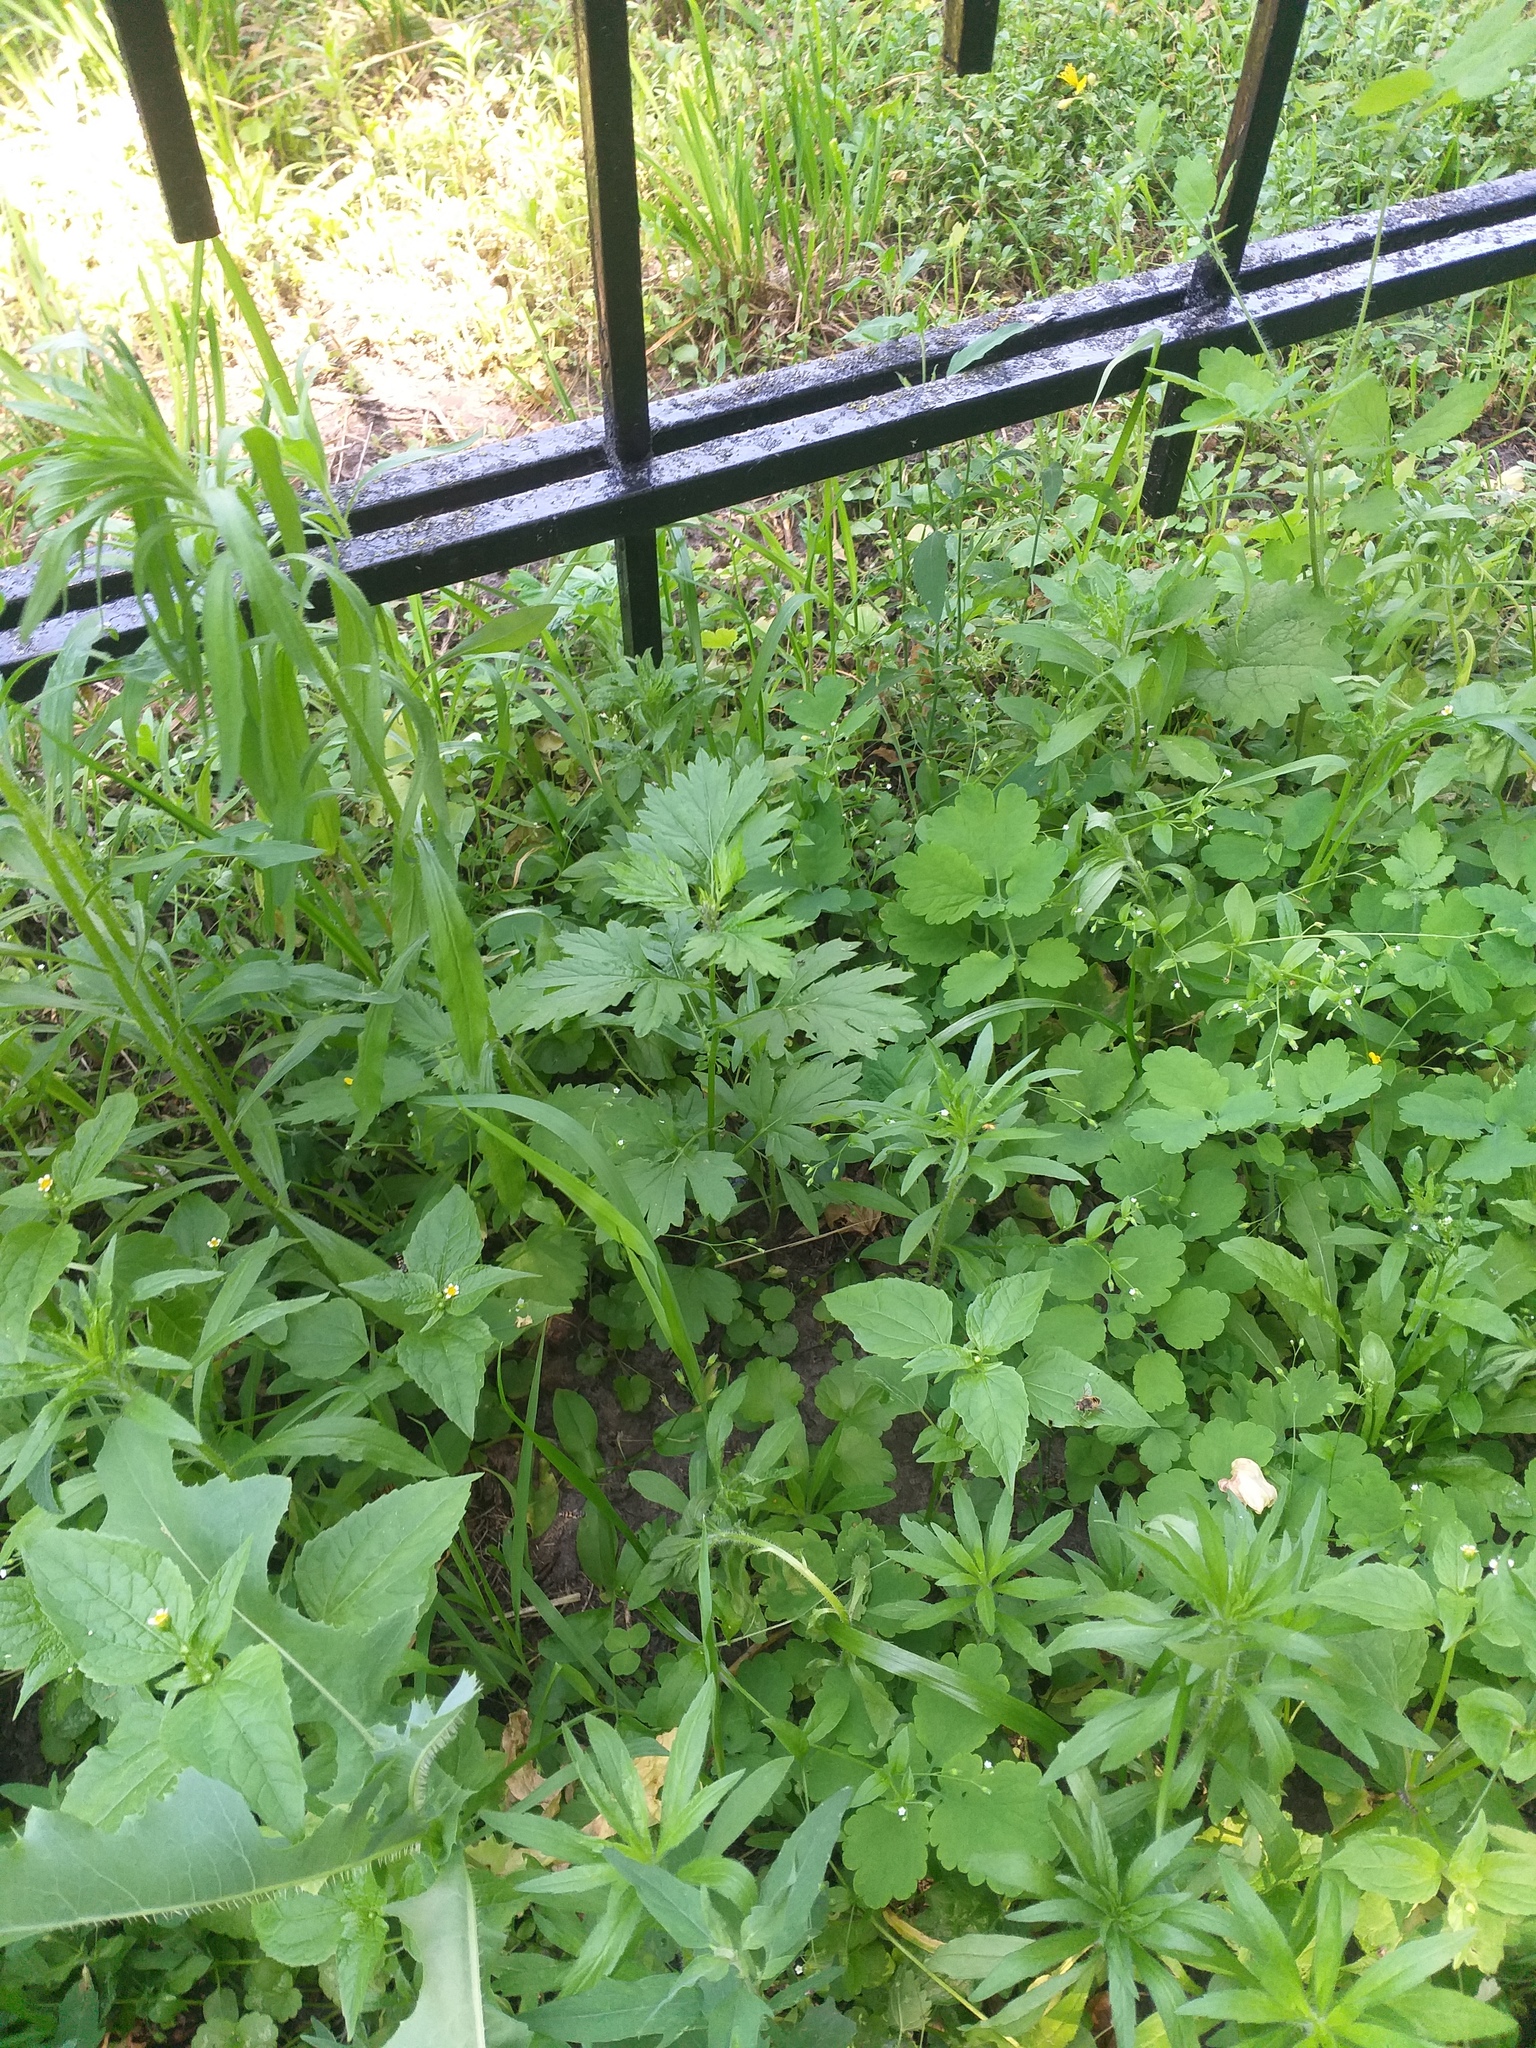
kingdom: Plantae
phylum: Tracheophyta
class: Magnoliopsida
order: Asterales
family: Asteraceae
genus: Artemisia
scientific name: Artemisia vulgaris
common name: Mugwort
